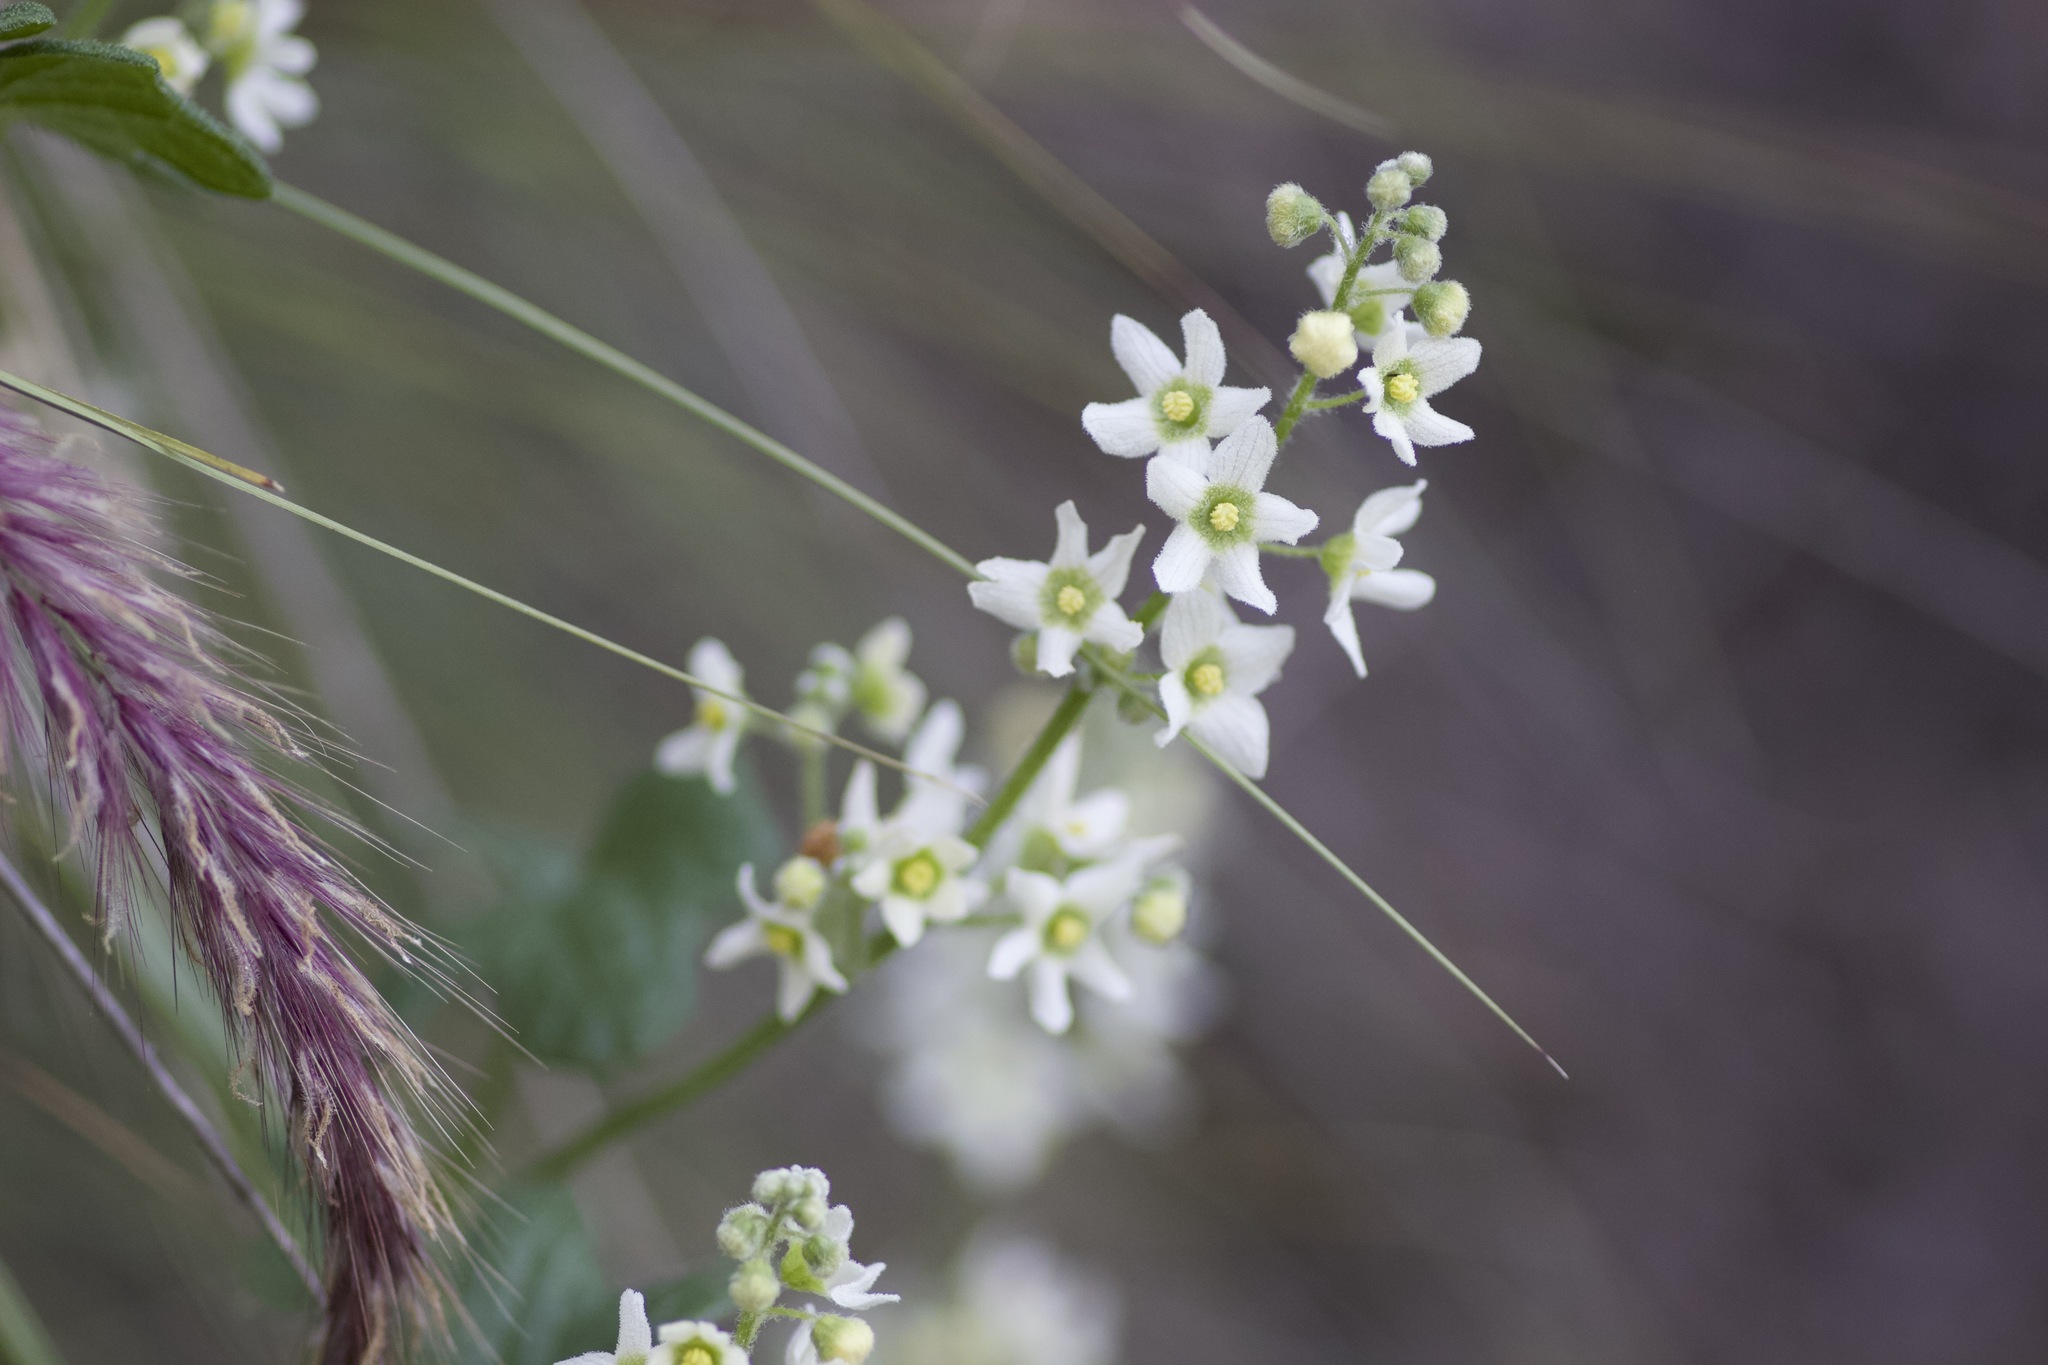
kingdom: Plantae
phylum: Tracheophyta
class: Magnoliopsida
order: Cucurbitales
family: Cucurbitaceae
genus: Marah
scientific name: Marah macrocarpa
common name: Cucamonga manroot
